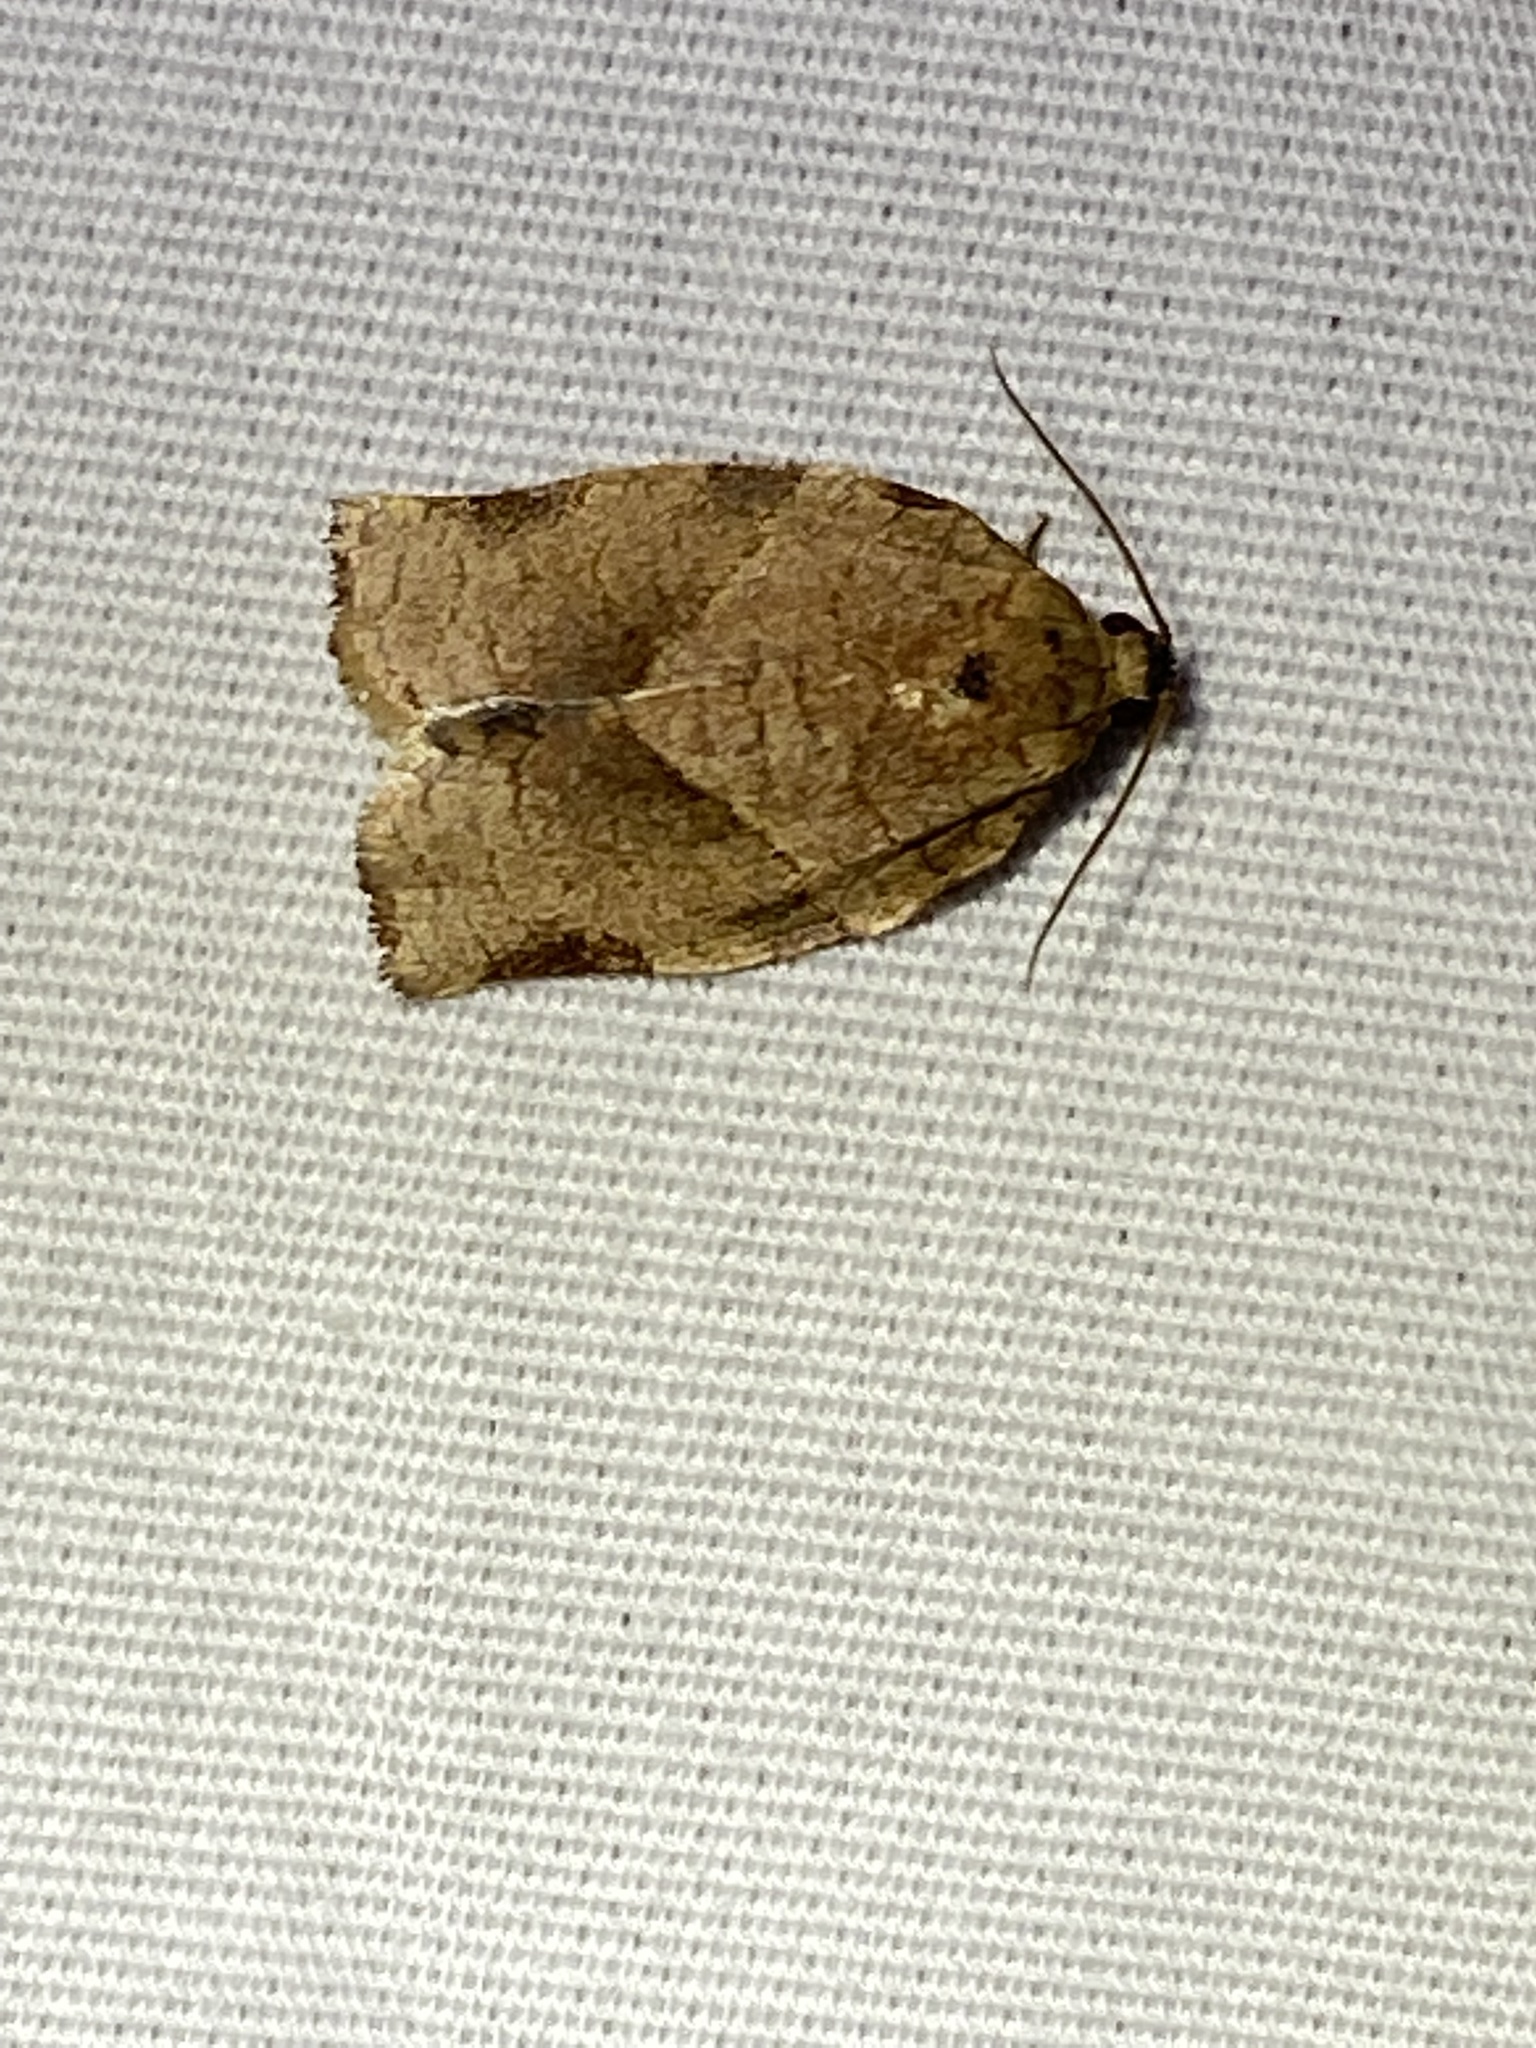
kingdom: Animalia
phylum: Arthropoda
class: Insecta
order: Lepidoptera
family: Tortricidae
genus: Choristoneura
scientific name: Choristoneura rosaceana
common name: Oblique-banded leafroller moth
